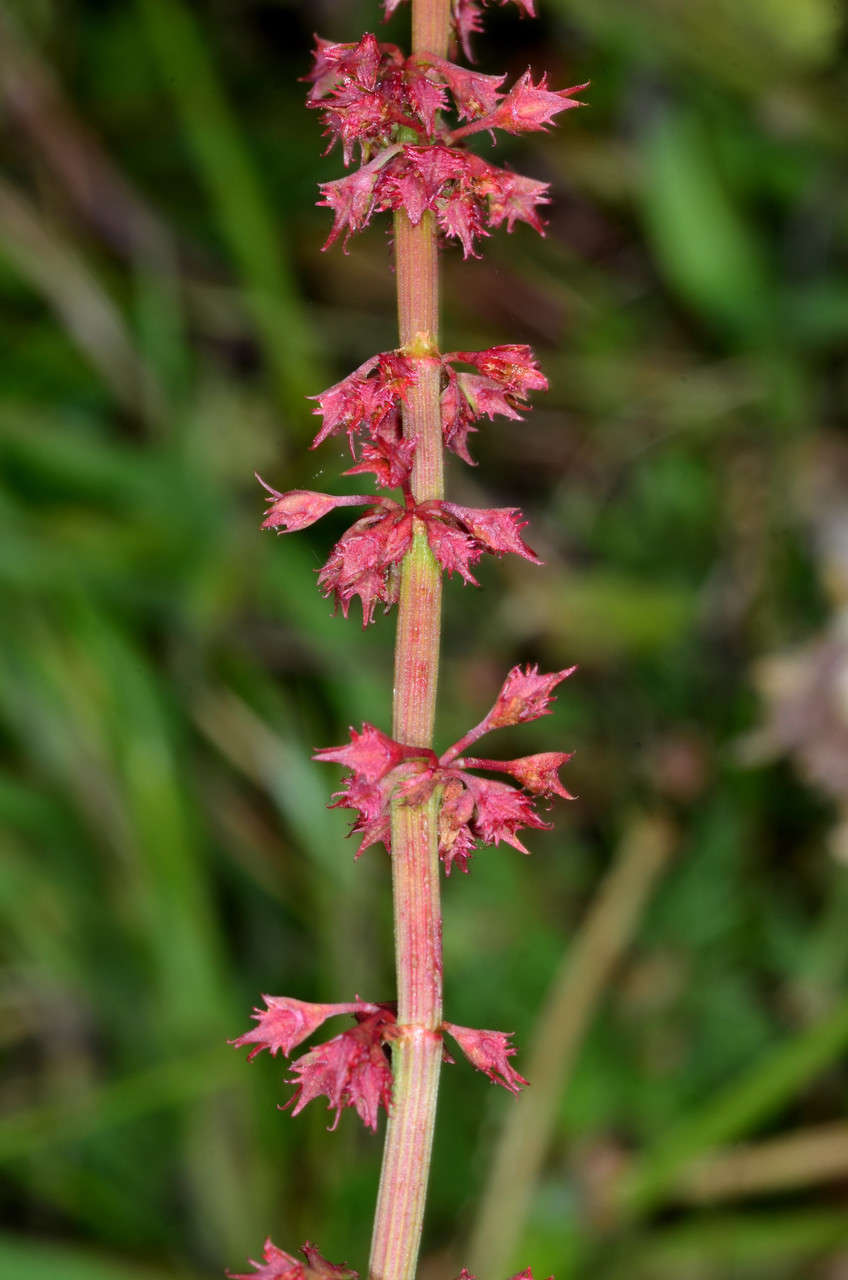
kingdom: Plantae
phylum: Tracheophyta
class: Magnoliopsida
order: Caryophyllales
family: Polygonaceae
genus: Rumex
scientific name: Rumex brownii
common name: Hooked dock
